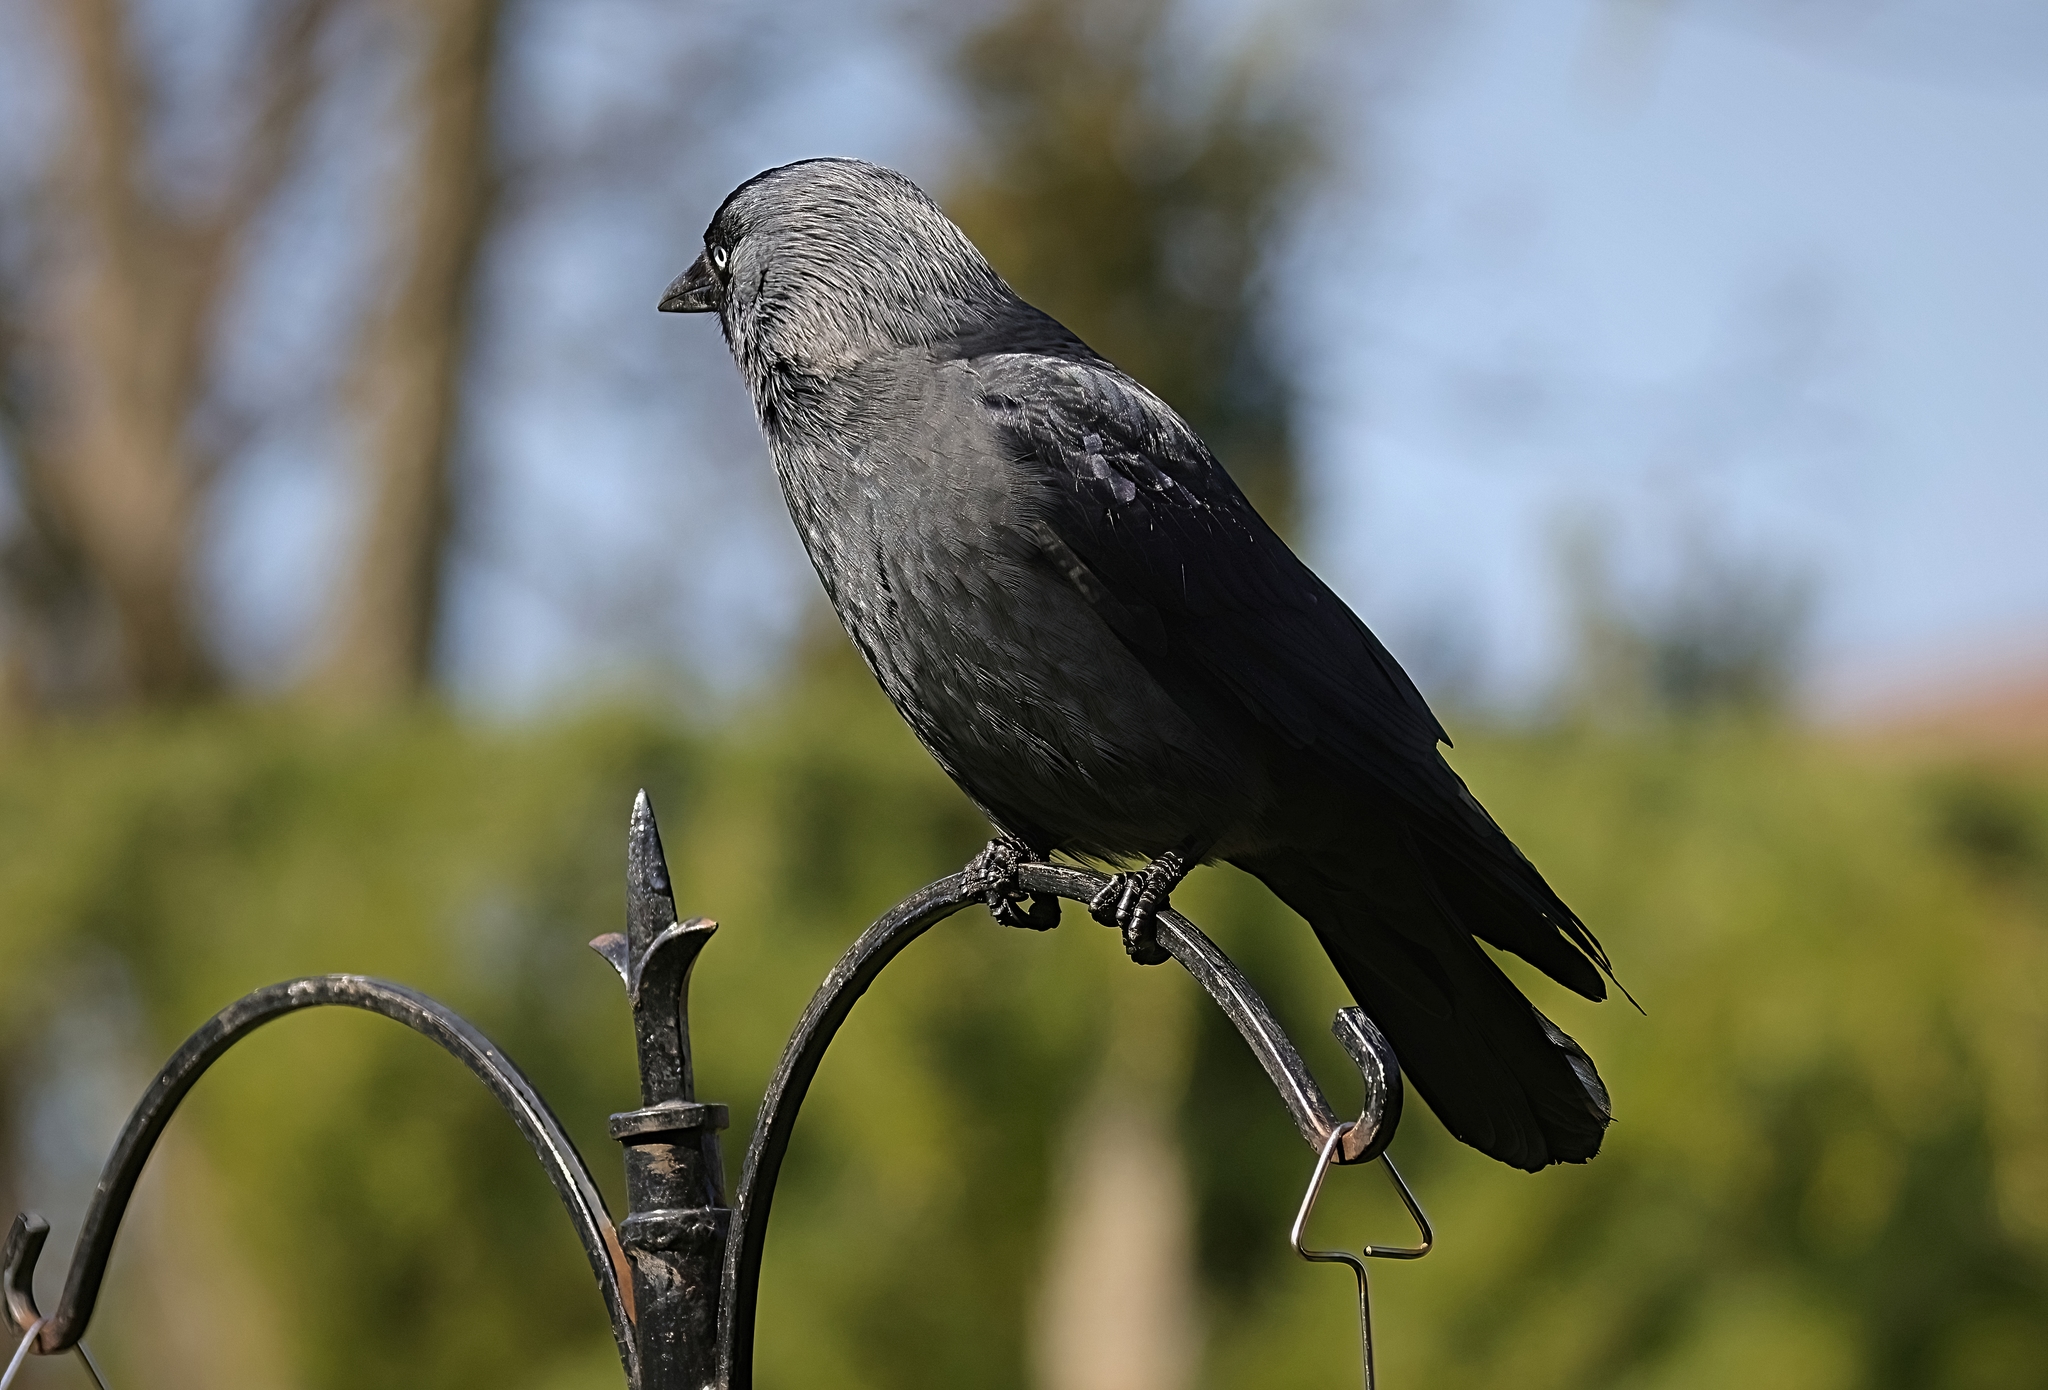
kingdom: Animalia
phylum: Chordata
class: Aves
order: Passeriformes
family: Corvidae
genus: Coloeus
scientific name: Coloeus monedula
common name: Western jackdaw
